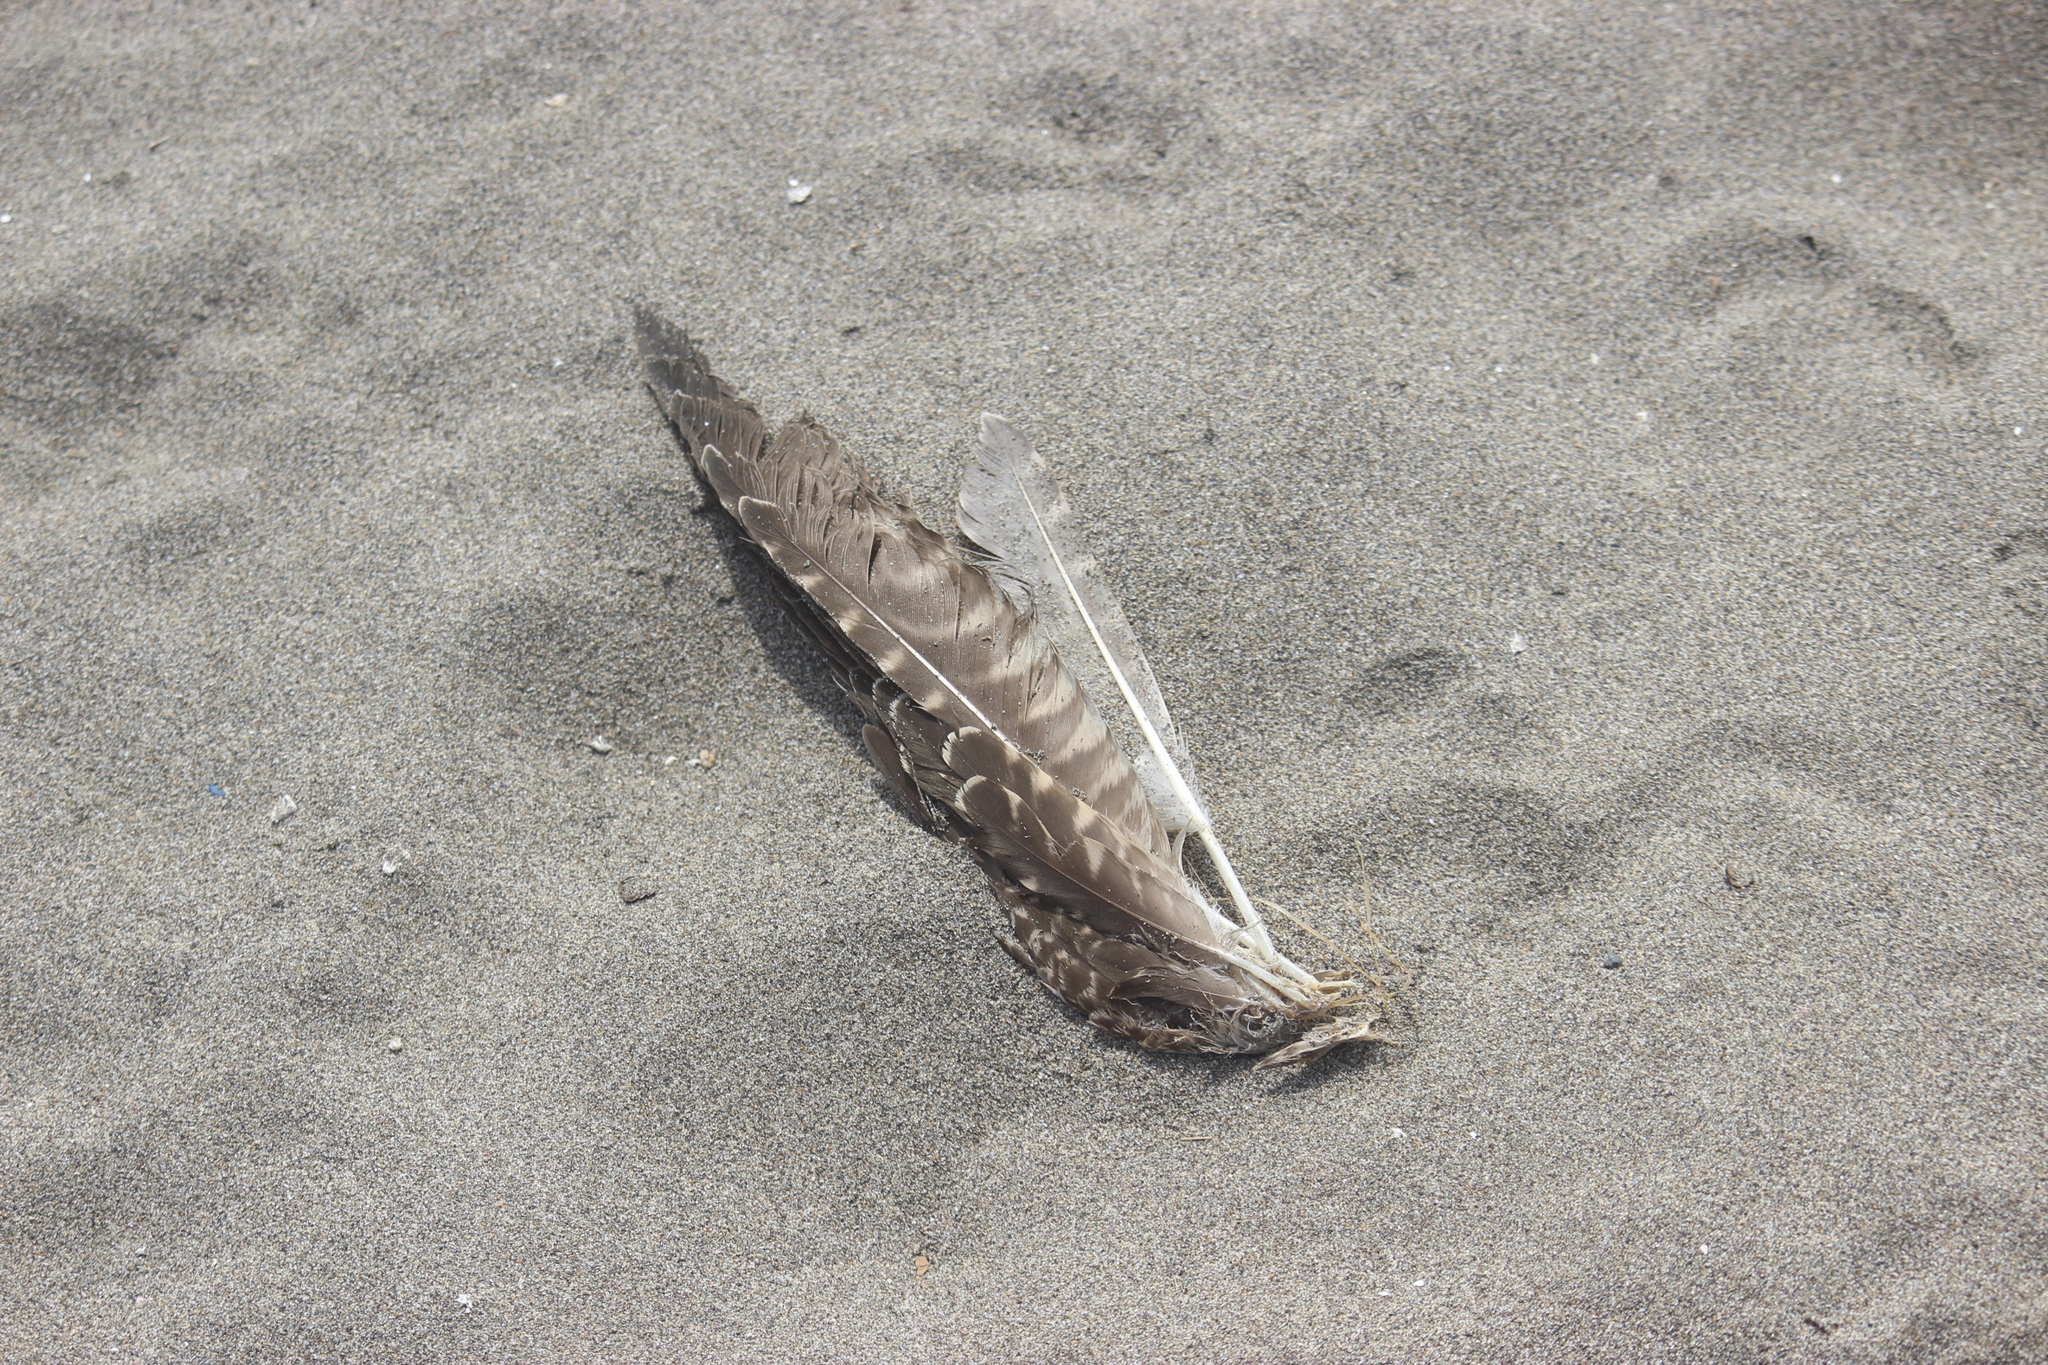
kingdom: Animalia
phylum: Chordata
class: Aves
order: Charadriiformes
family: Scolopacidae
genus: Numenius
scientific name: Numenius phaeopus
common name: Whimbrel
